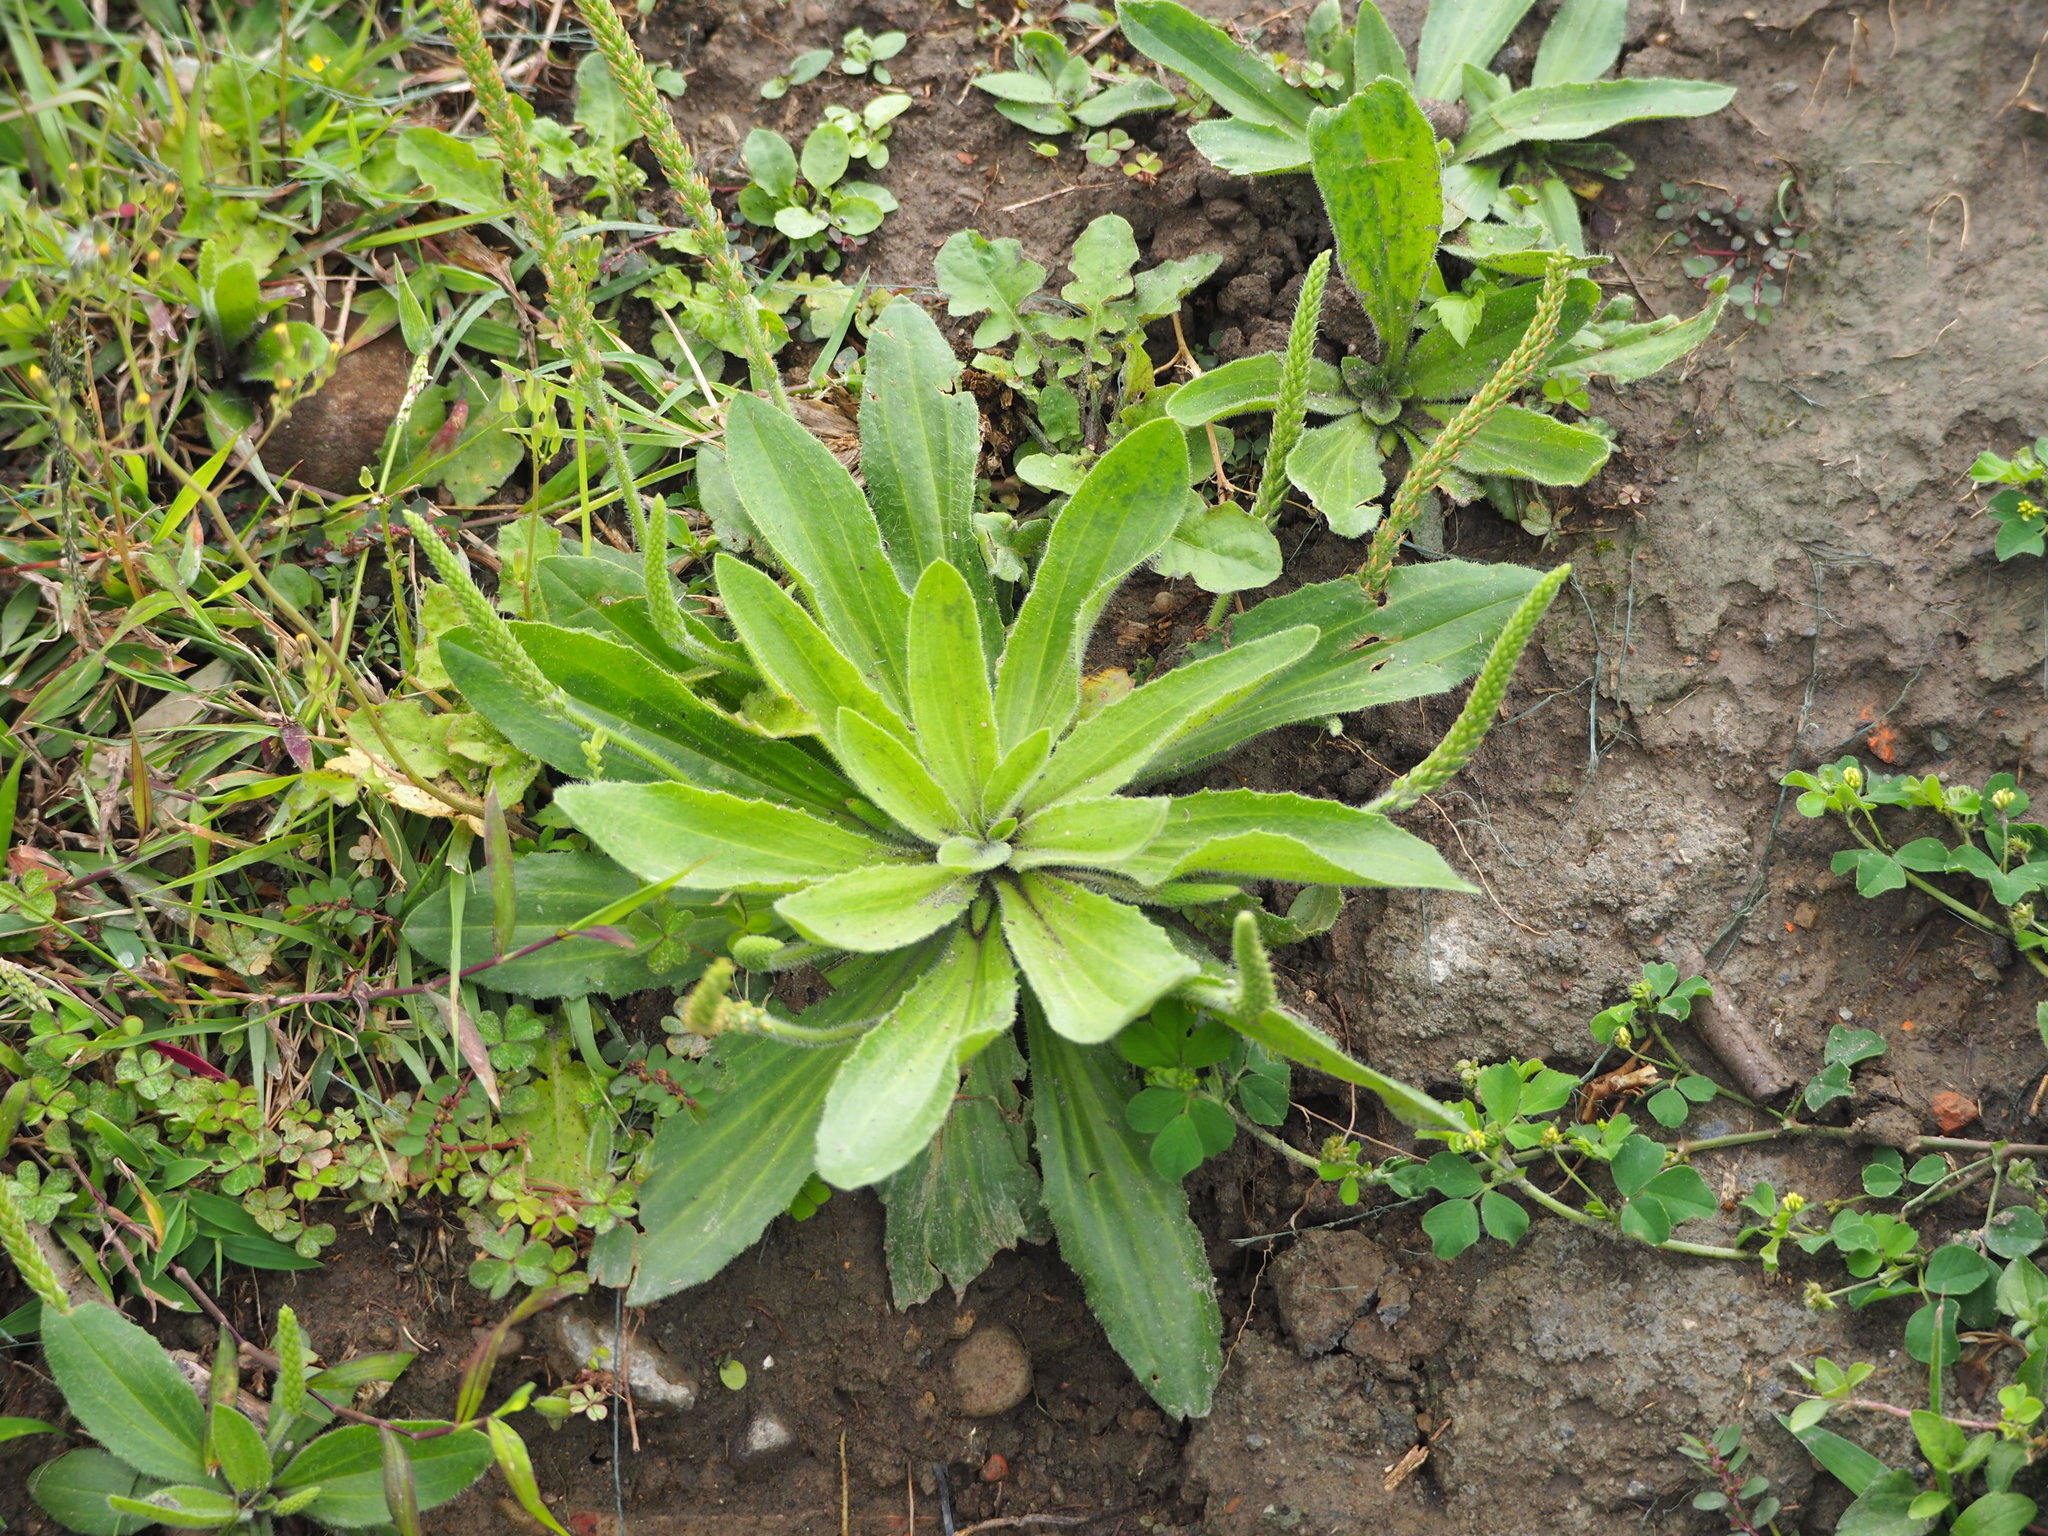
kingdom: Plantae
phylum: Tracheophyta
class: Magnoliopsida
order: Lamiales
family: Plantaginaceae
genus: Plantago
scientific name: Plantago virginica
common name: Hoary plantain
